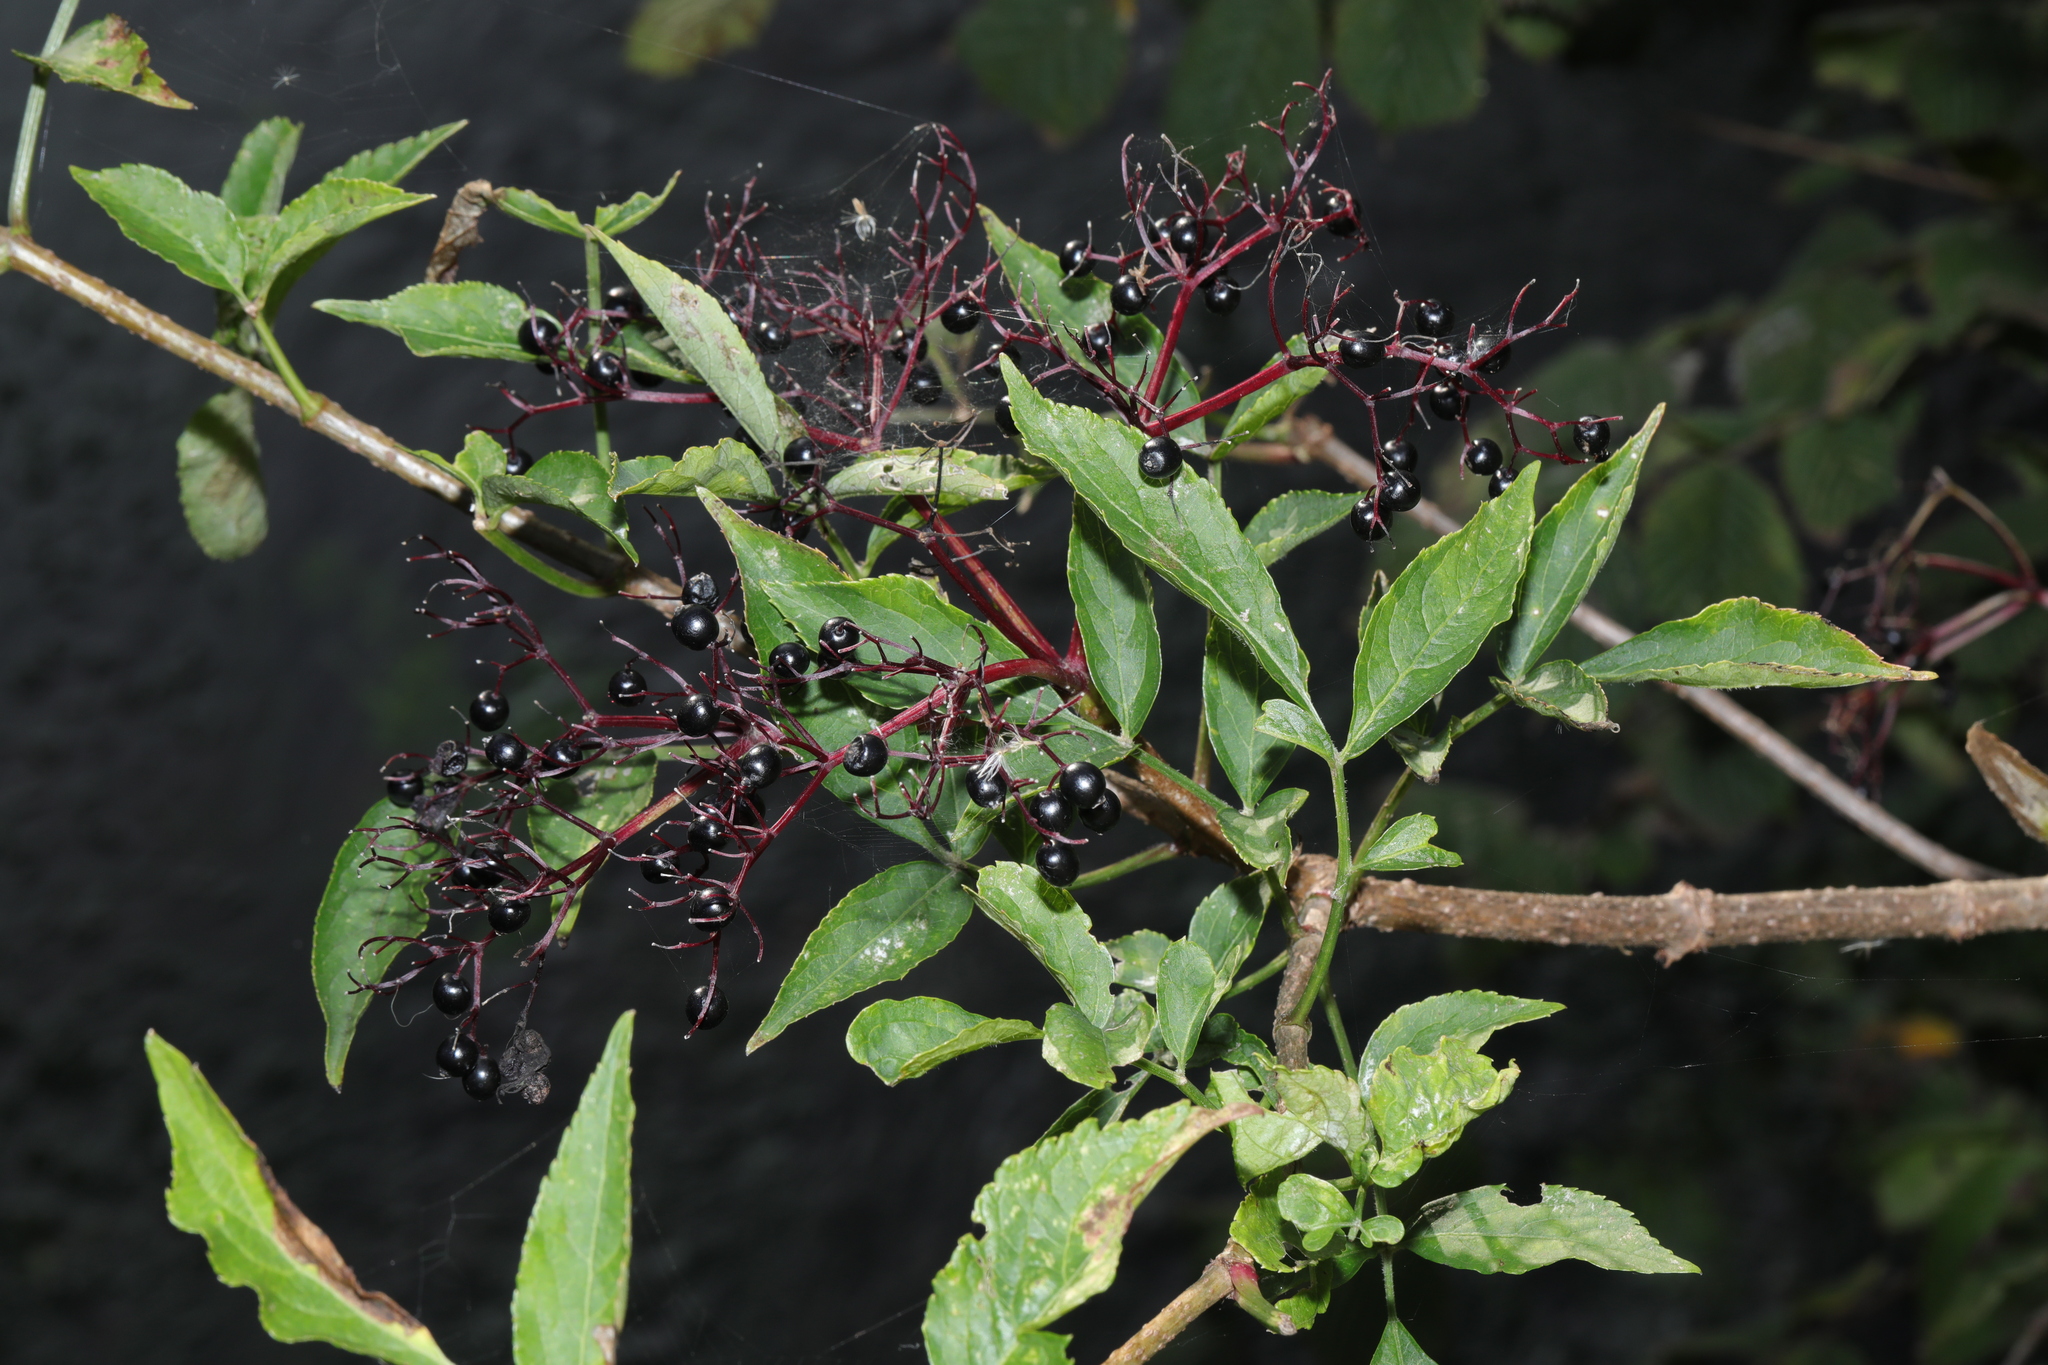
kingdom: Plantae
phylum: Tracheophyta
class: Magnoliopsida
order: Dipsacales
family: Viburnaceae
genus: Sambucus
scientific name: Sambucus nigra
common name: Elder
